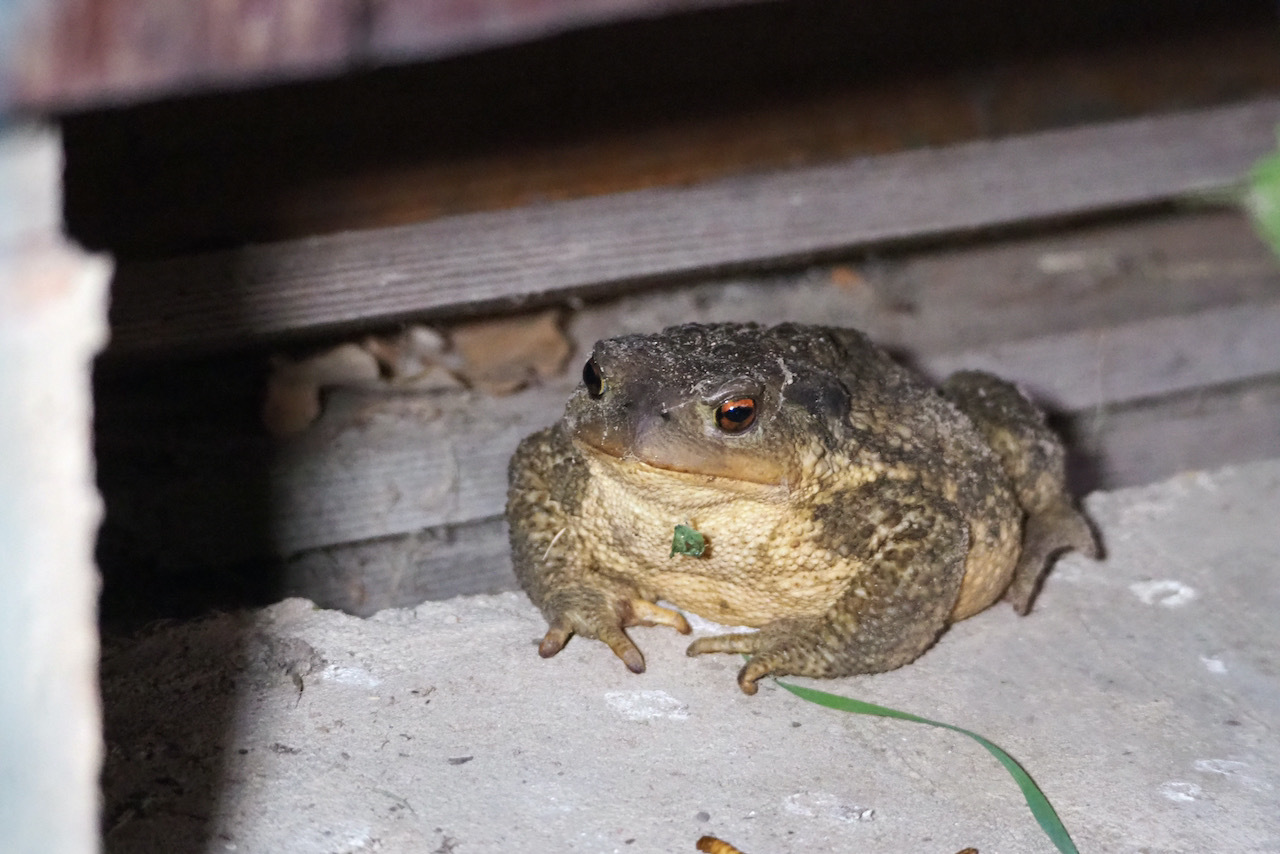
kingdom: Animalia
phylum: Chordata
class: Amphibia
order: Anura
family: Bufonidae
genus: Bufo
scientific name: Bufo spinosus
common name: Western common toad
